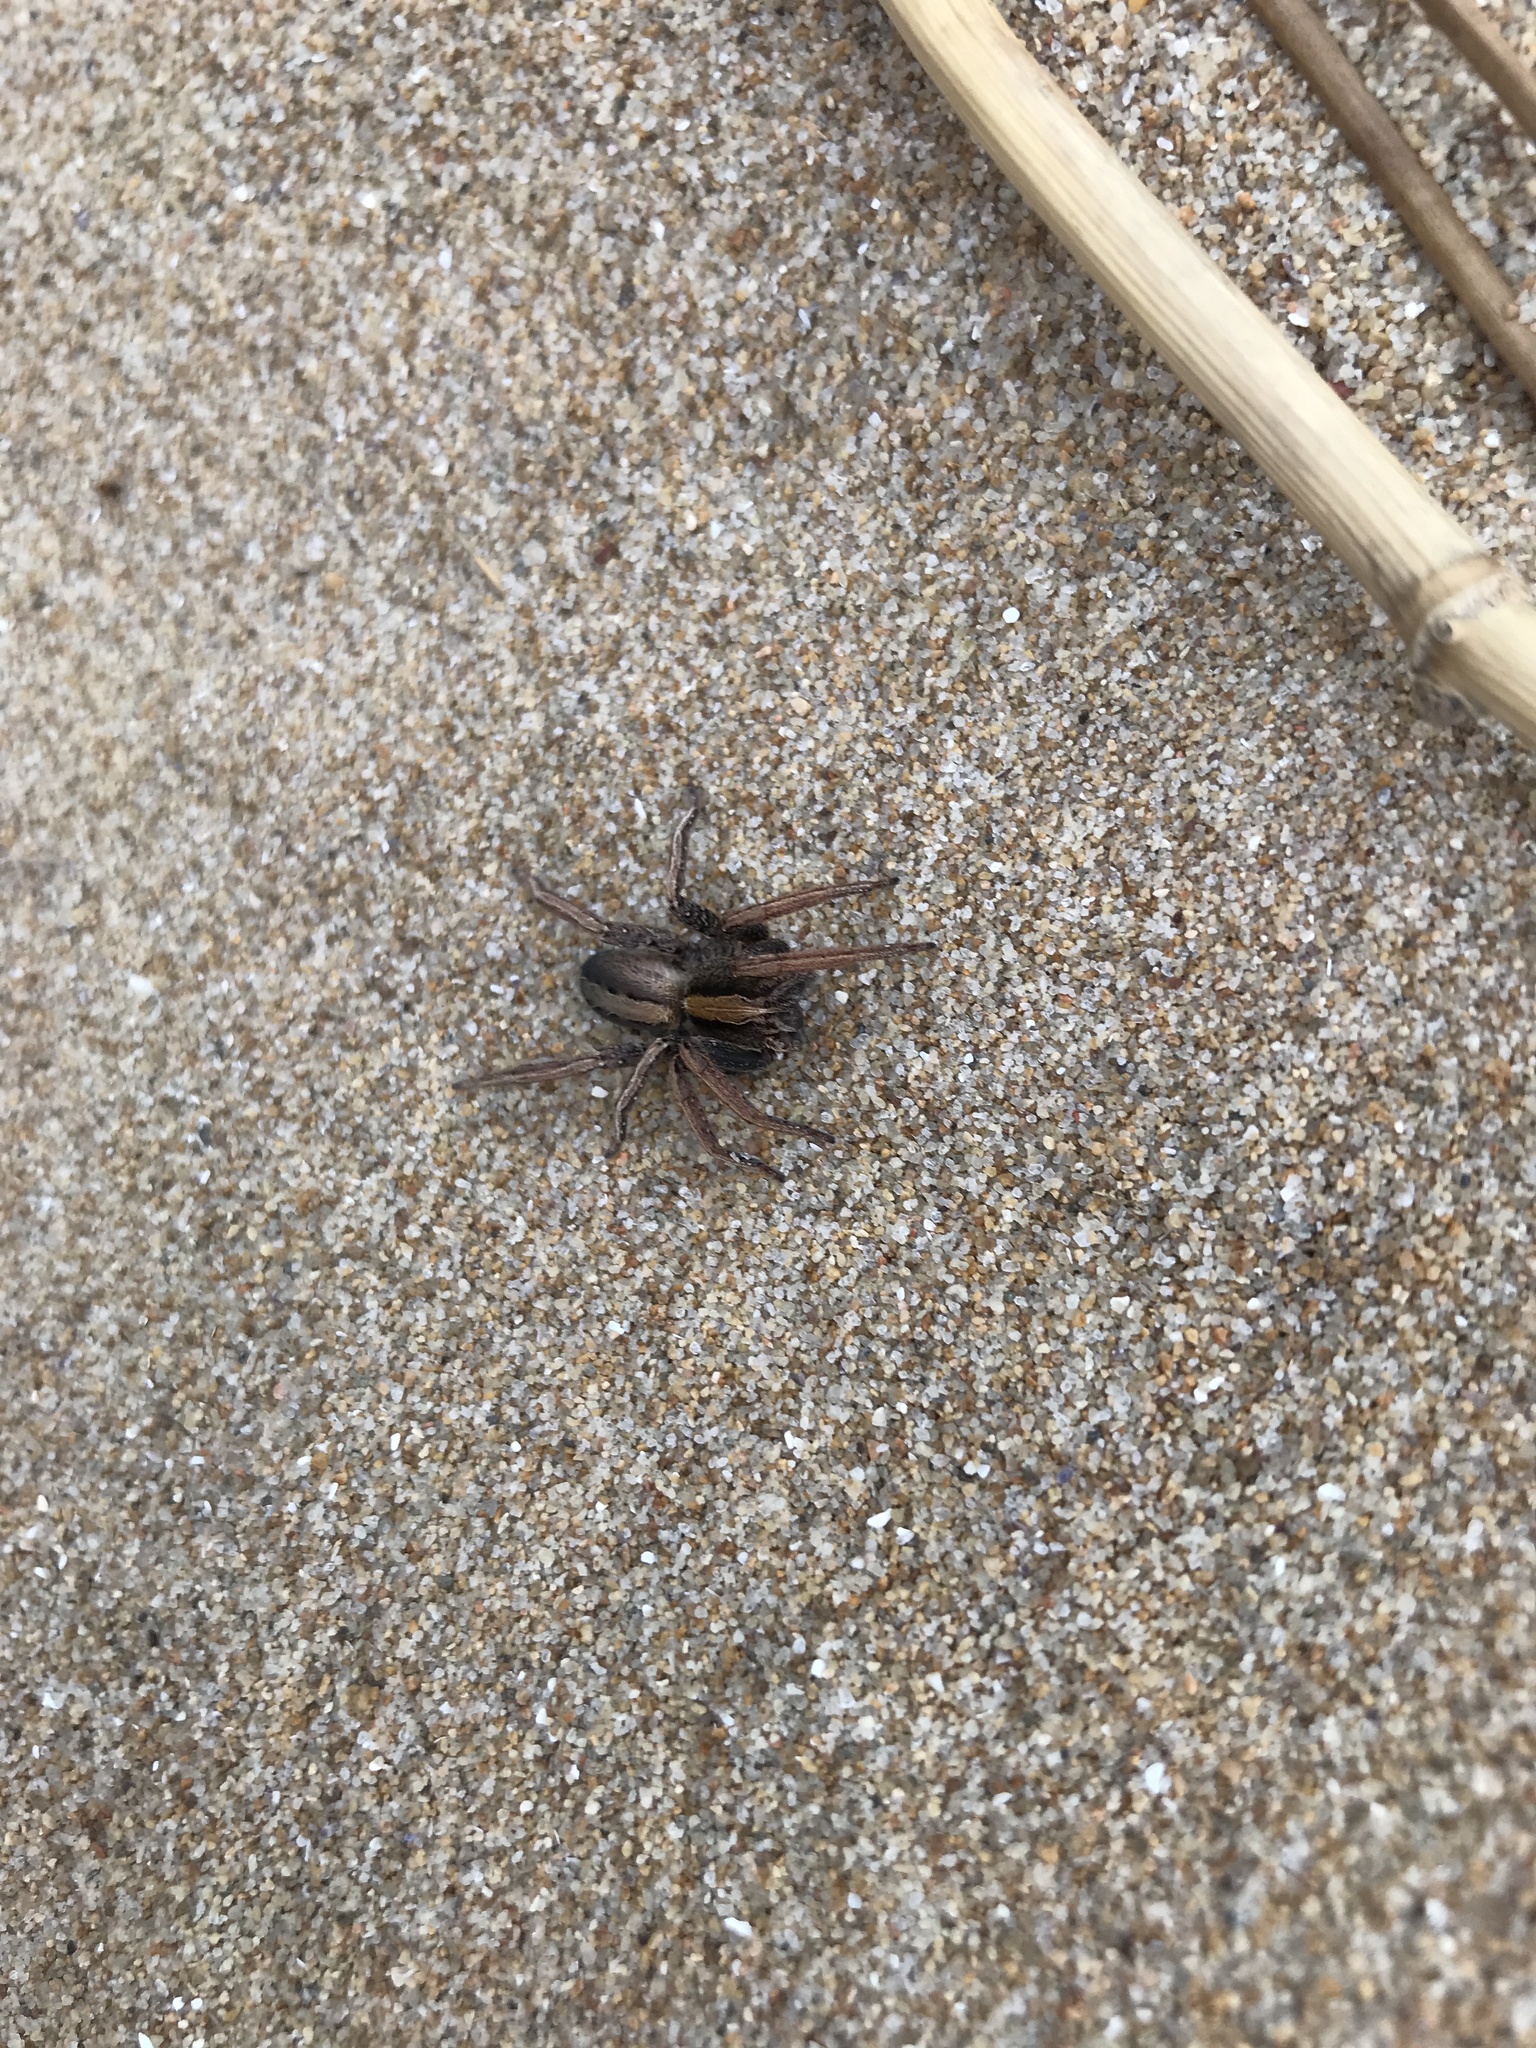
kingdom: Animalia
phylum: Arthropoda
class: Arachnida
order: Araneae
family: Ctenidae
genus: Parabatinga
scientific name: Parabatinga brevipes
